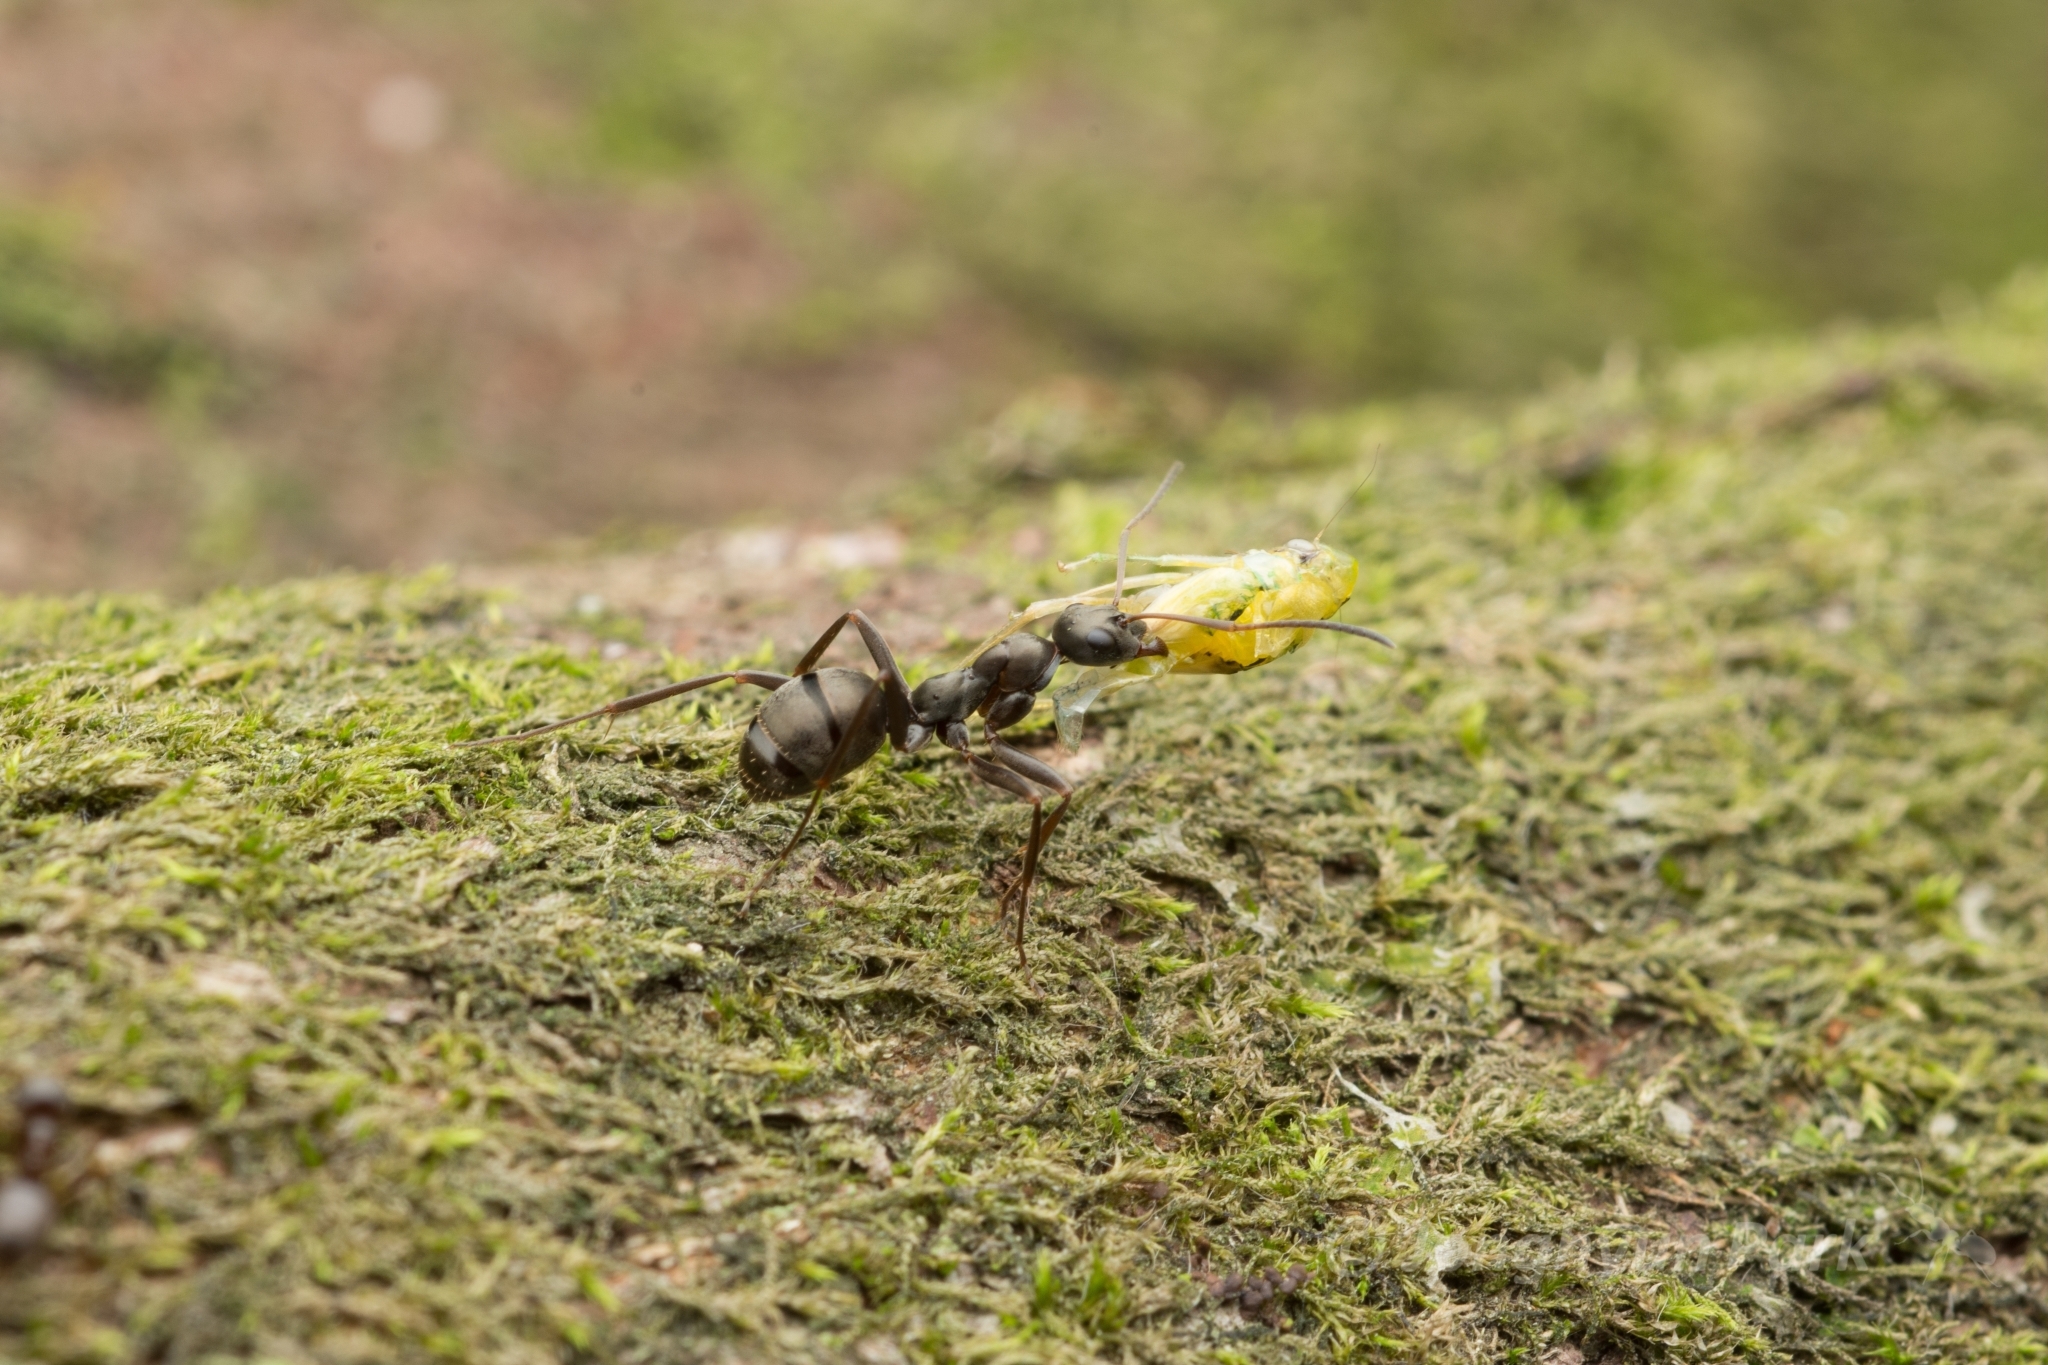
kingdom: Animalia
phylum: Arthropoda
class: Insecta
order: Hymenoptera
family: Formicidae
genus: Formica
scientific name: Formica hayashi
